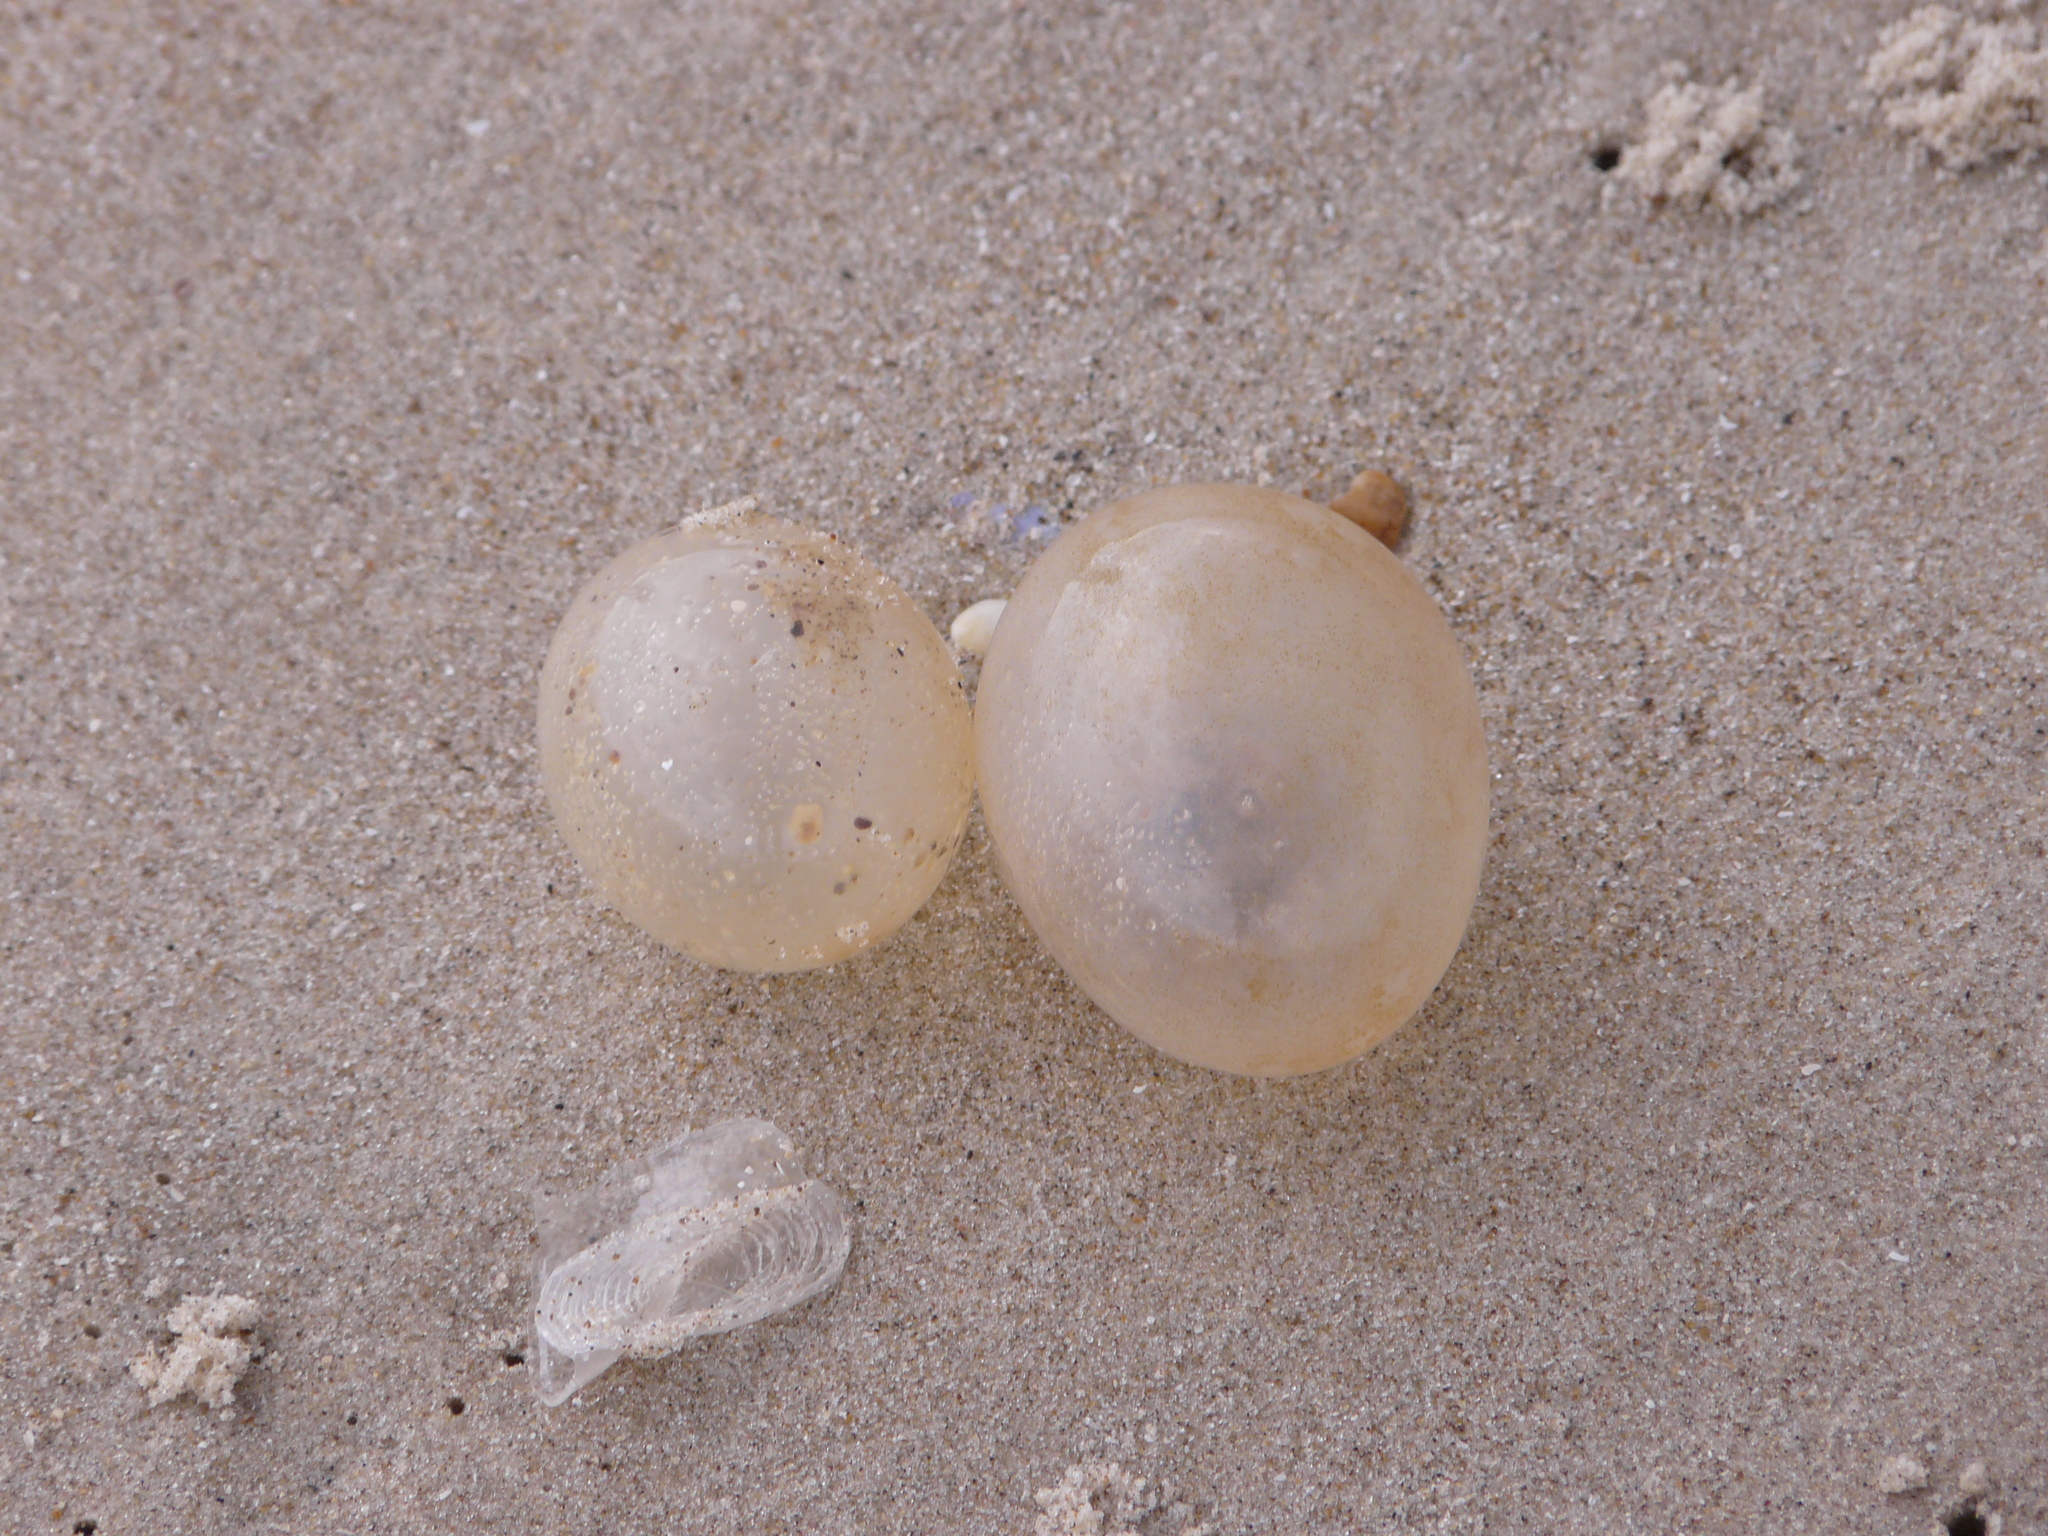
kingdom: Animalia
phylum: Mollusca
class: Gastropoda
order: Neogastropoda
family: Volutidae
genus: Pachycymbiola
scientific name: Pachycymbiola brasiliana
